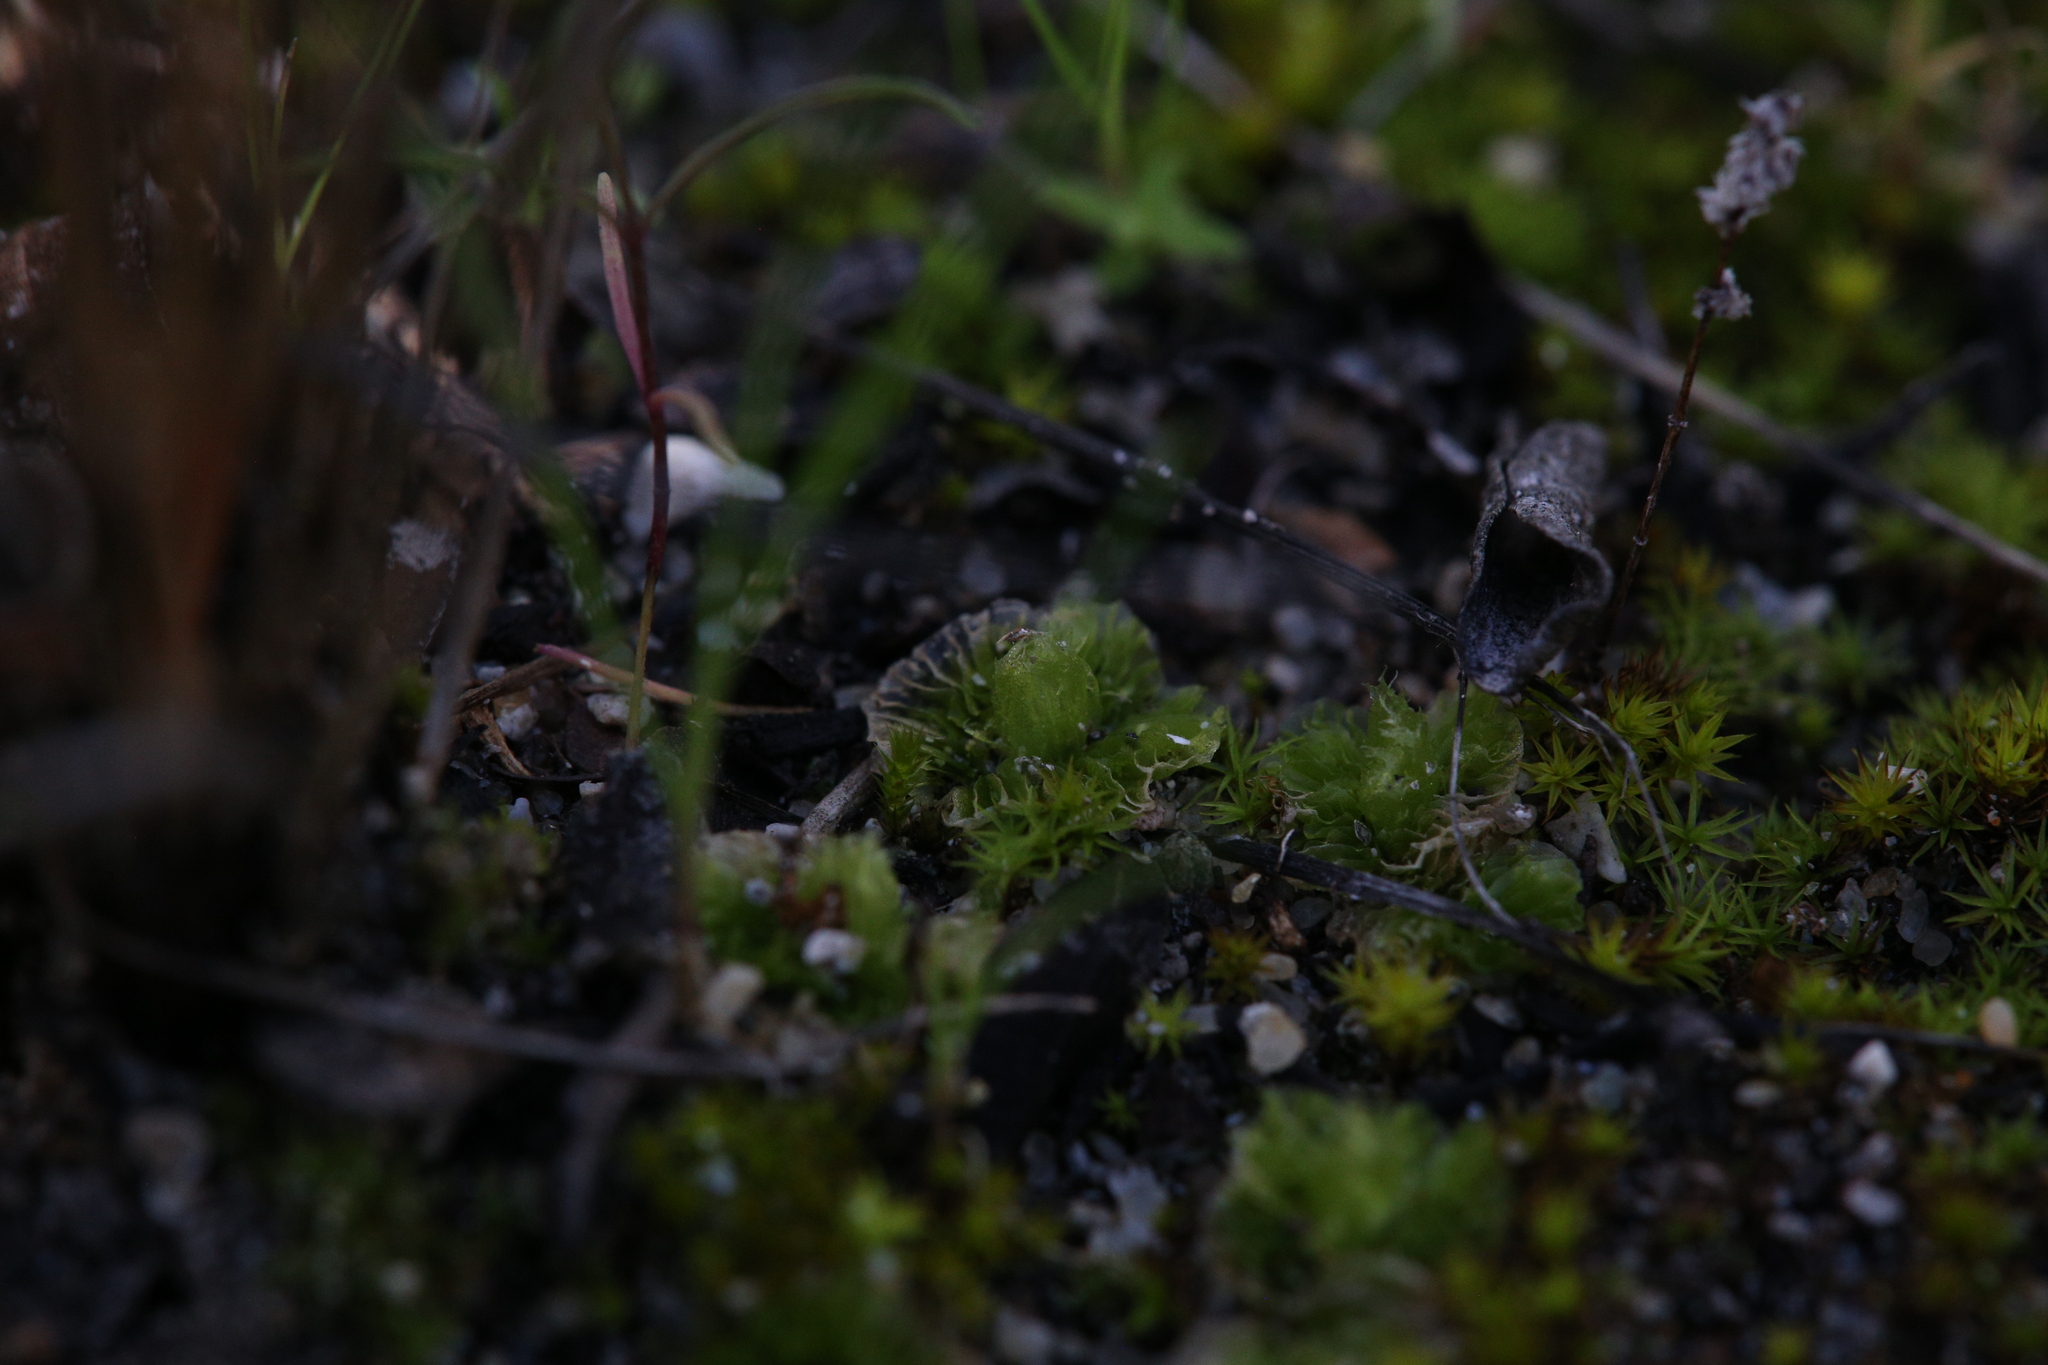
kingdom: Plantae
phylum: Marchantiophyta
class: Jungermanniopsida
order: Fossombroniales
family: Petalophyllaceae
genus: Petalophyllum
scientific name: Petalophyllum preissii
